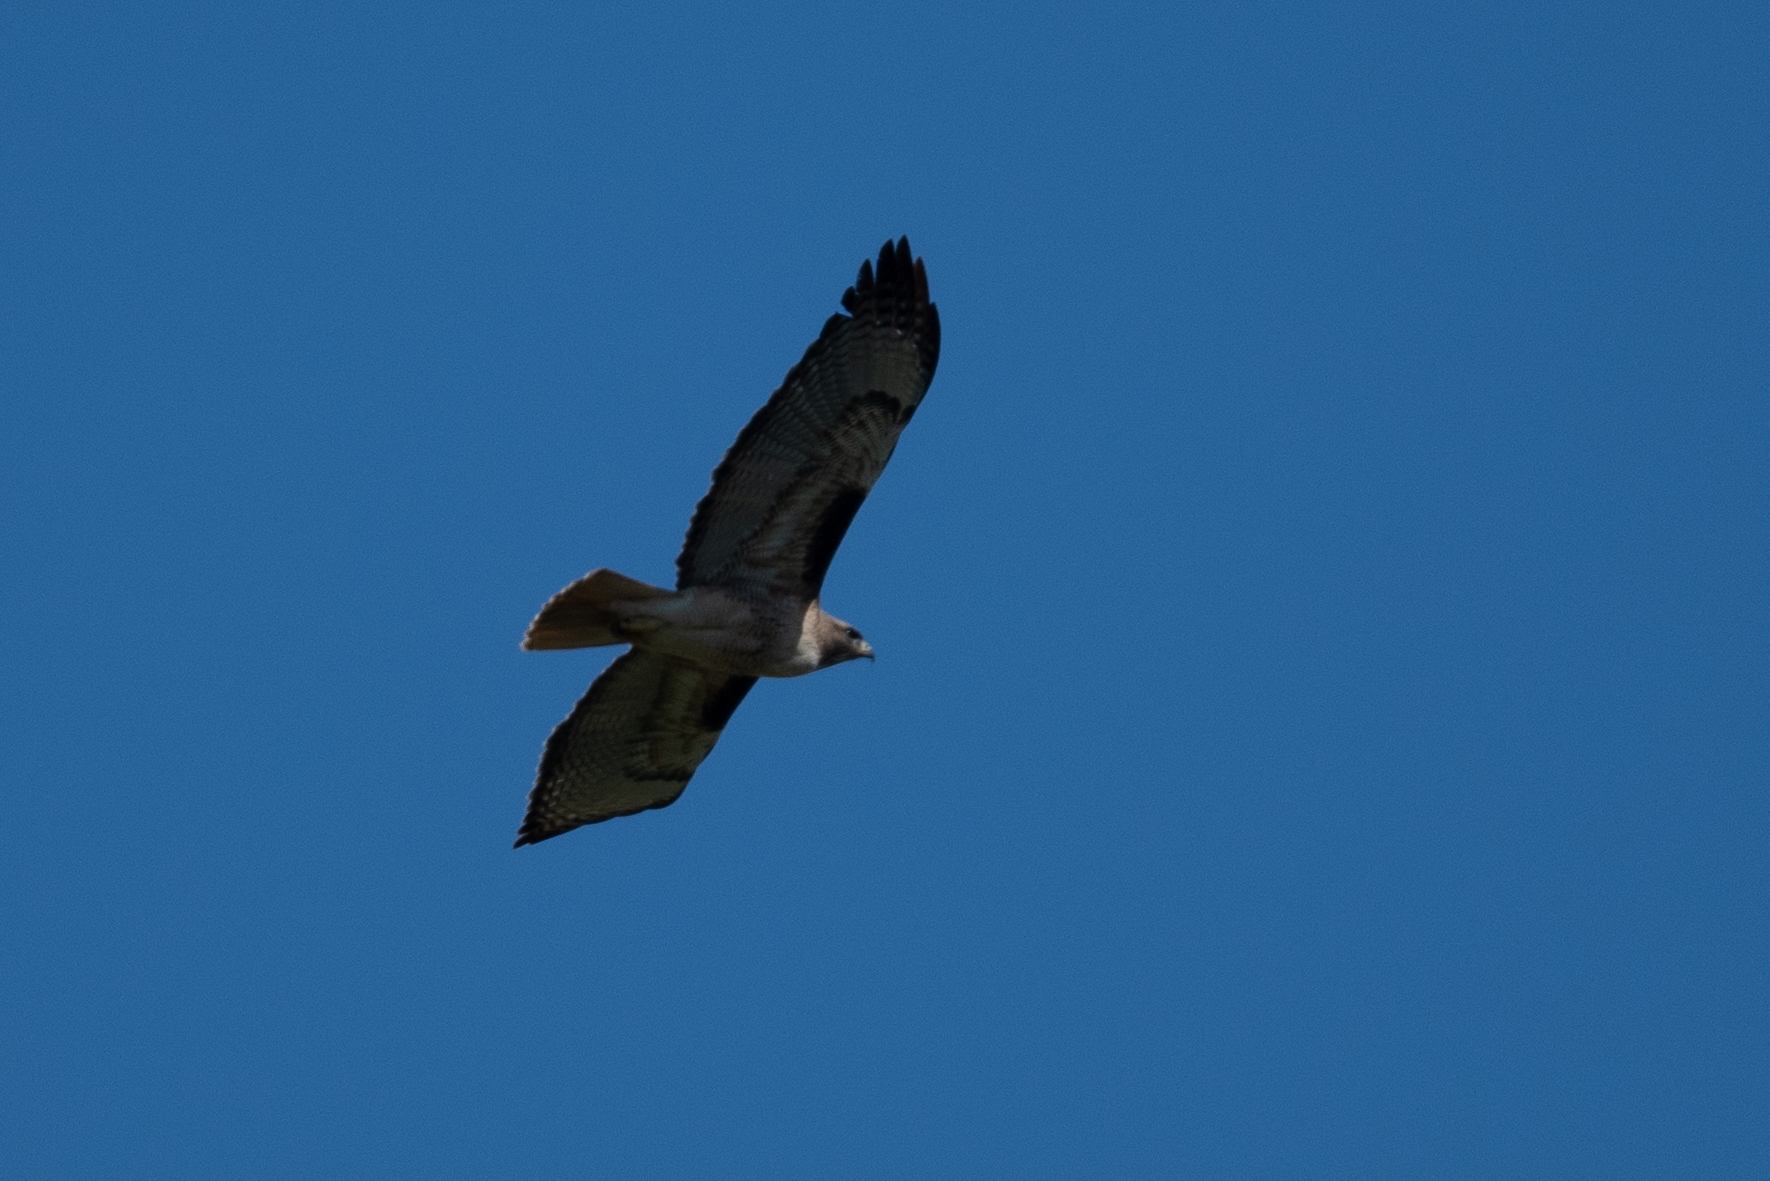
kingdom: Animalia
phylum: Chordata
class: Aves
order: Accipitriformes
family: Accipitridae
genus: Buteo
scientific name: Buteo jamaicensis
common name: Red-tailed hawk
